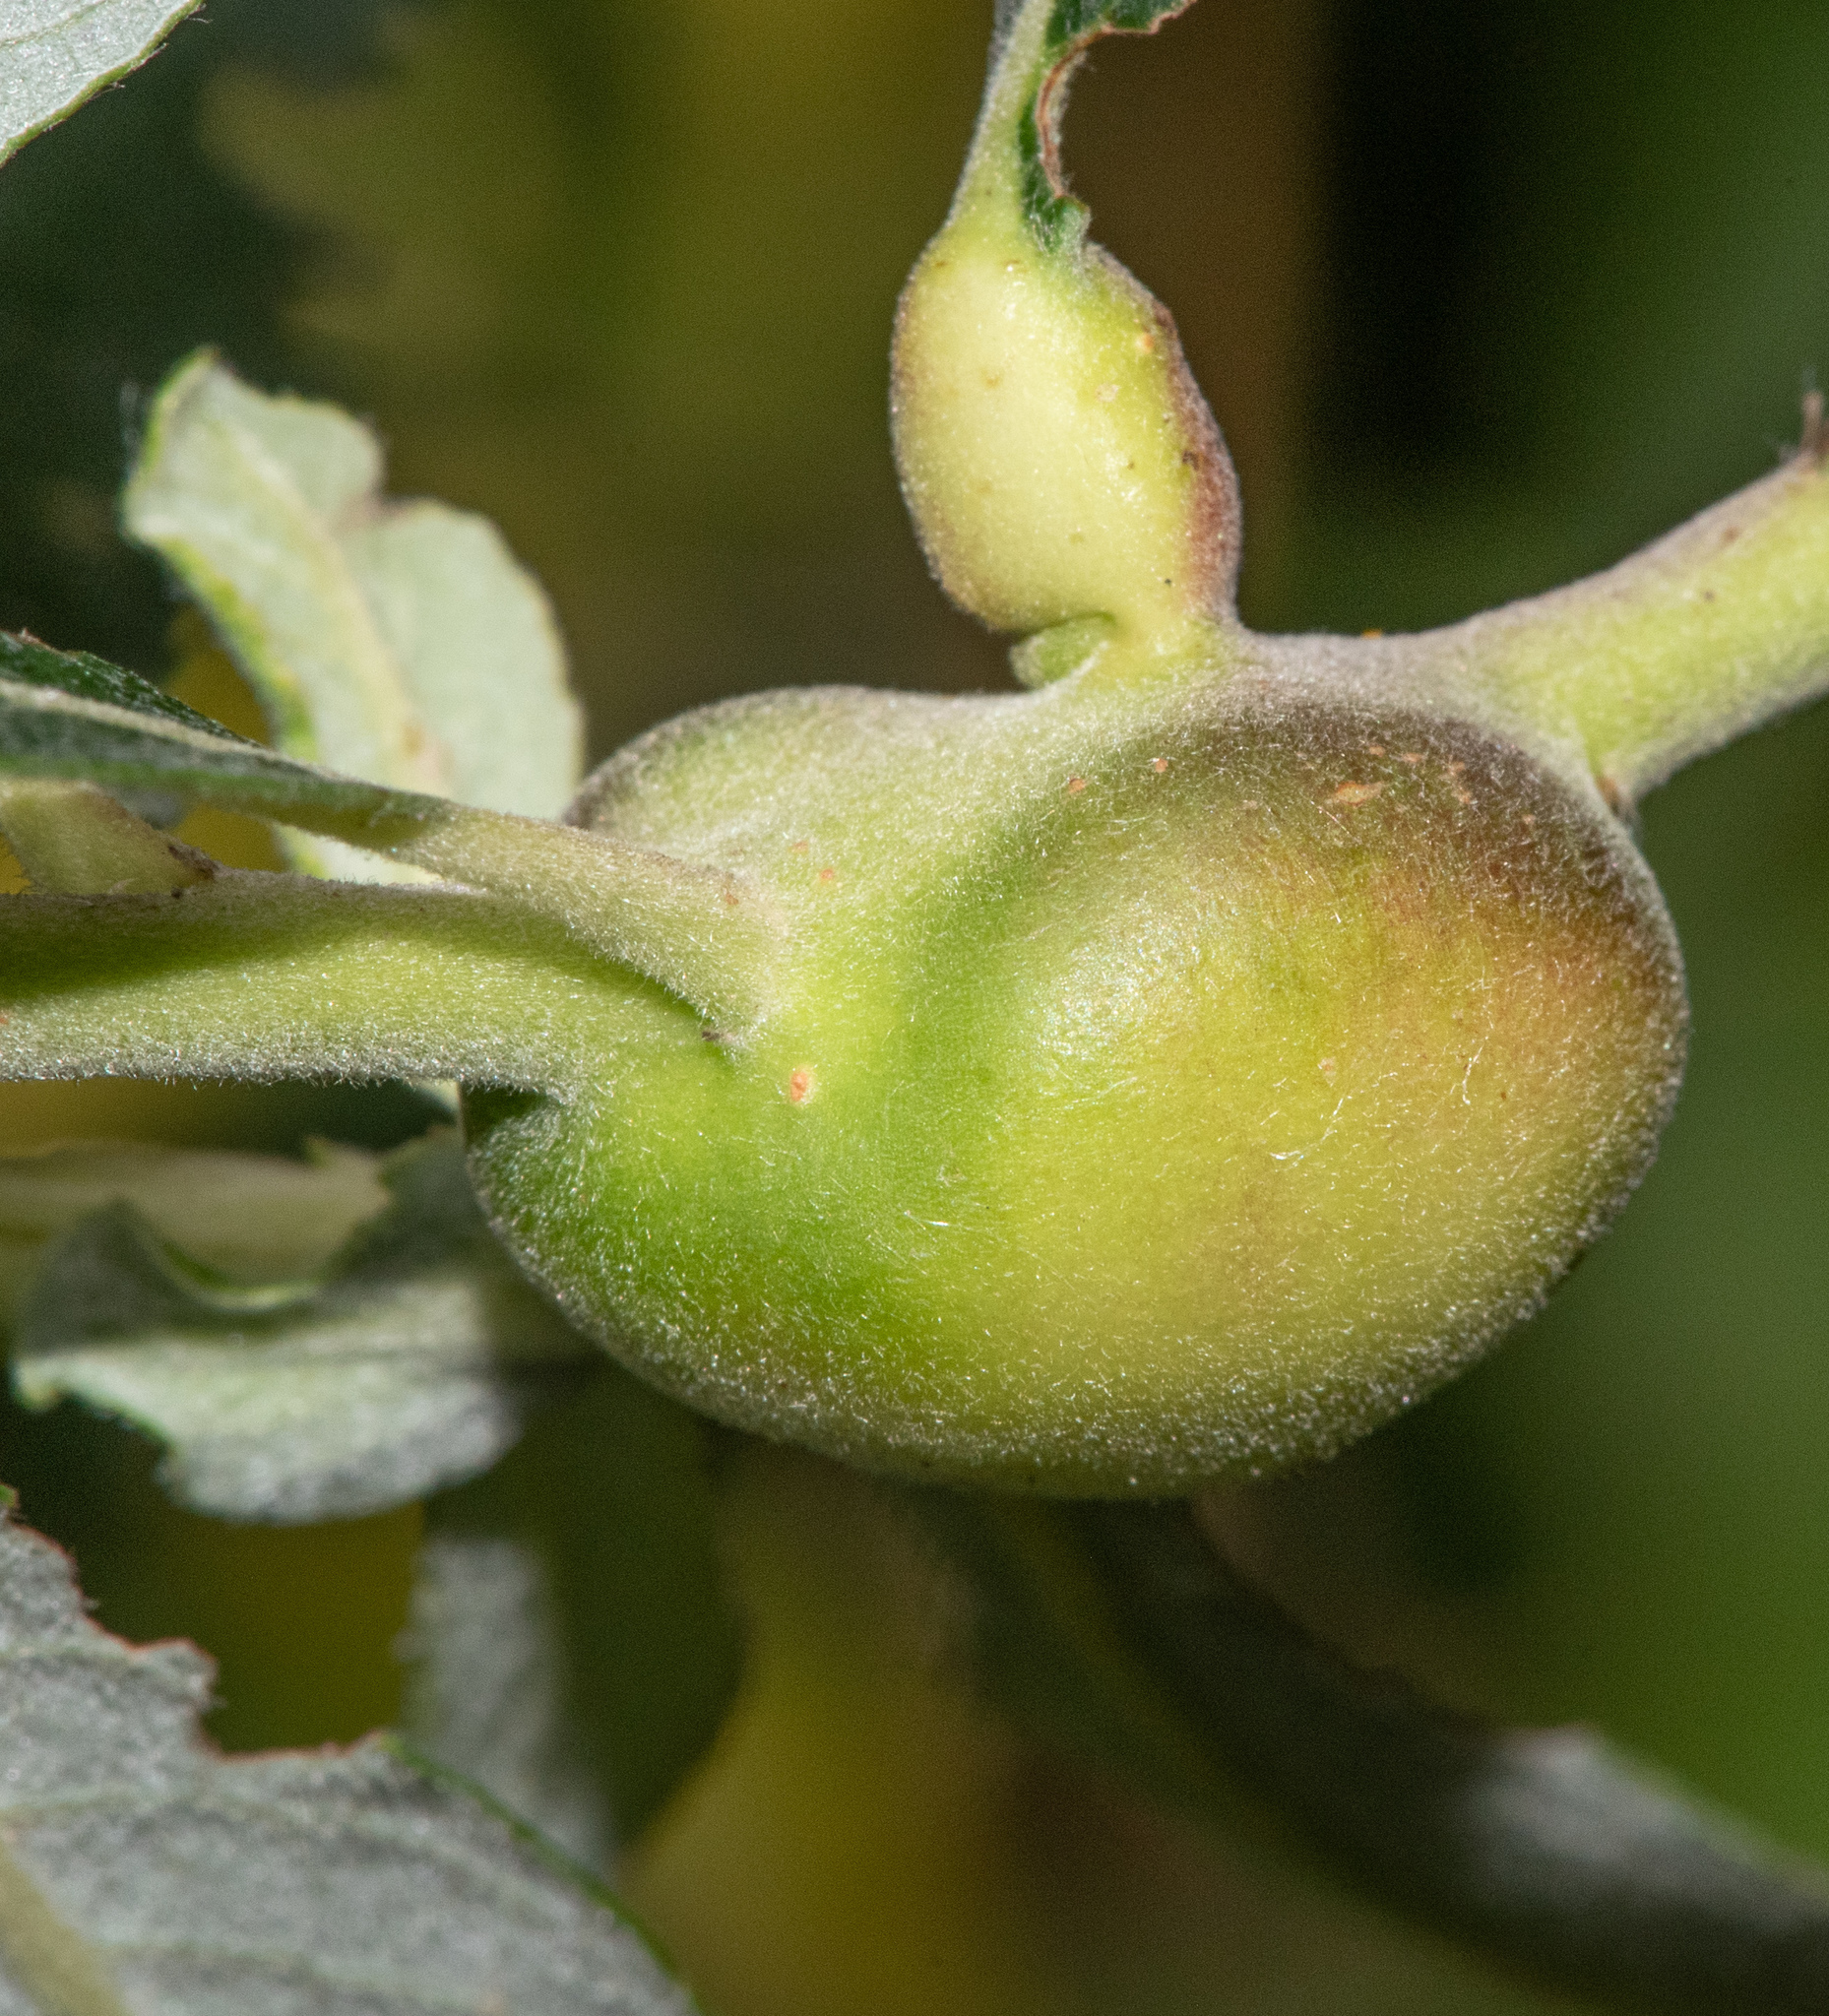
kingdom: Animalia
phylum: Arthropoda
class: Insecta
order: Diptera
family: Cecidomyiidae
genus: Rabdophaga
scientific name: Rabdophaga salicisbatatas
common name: Potato gall midge
